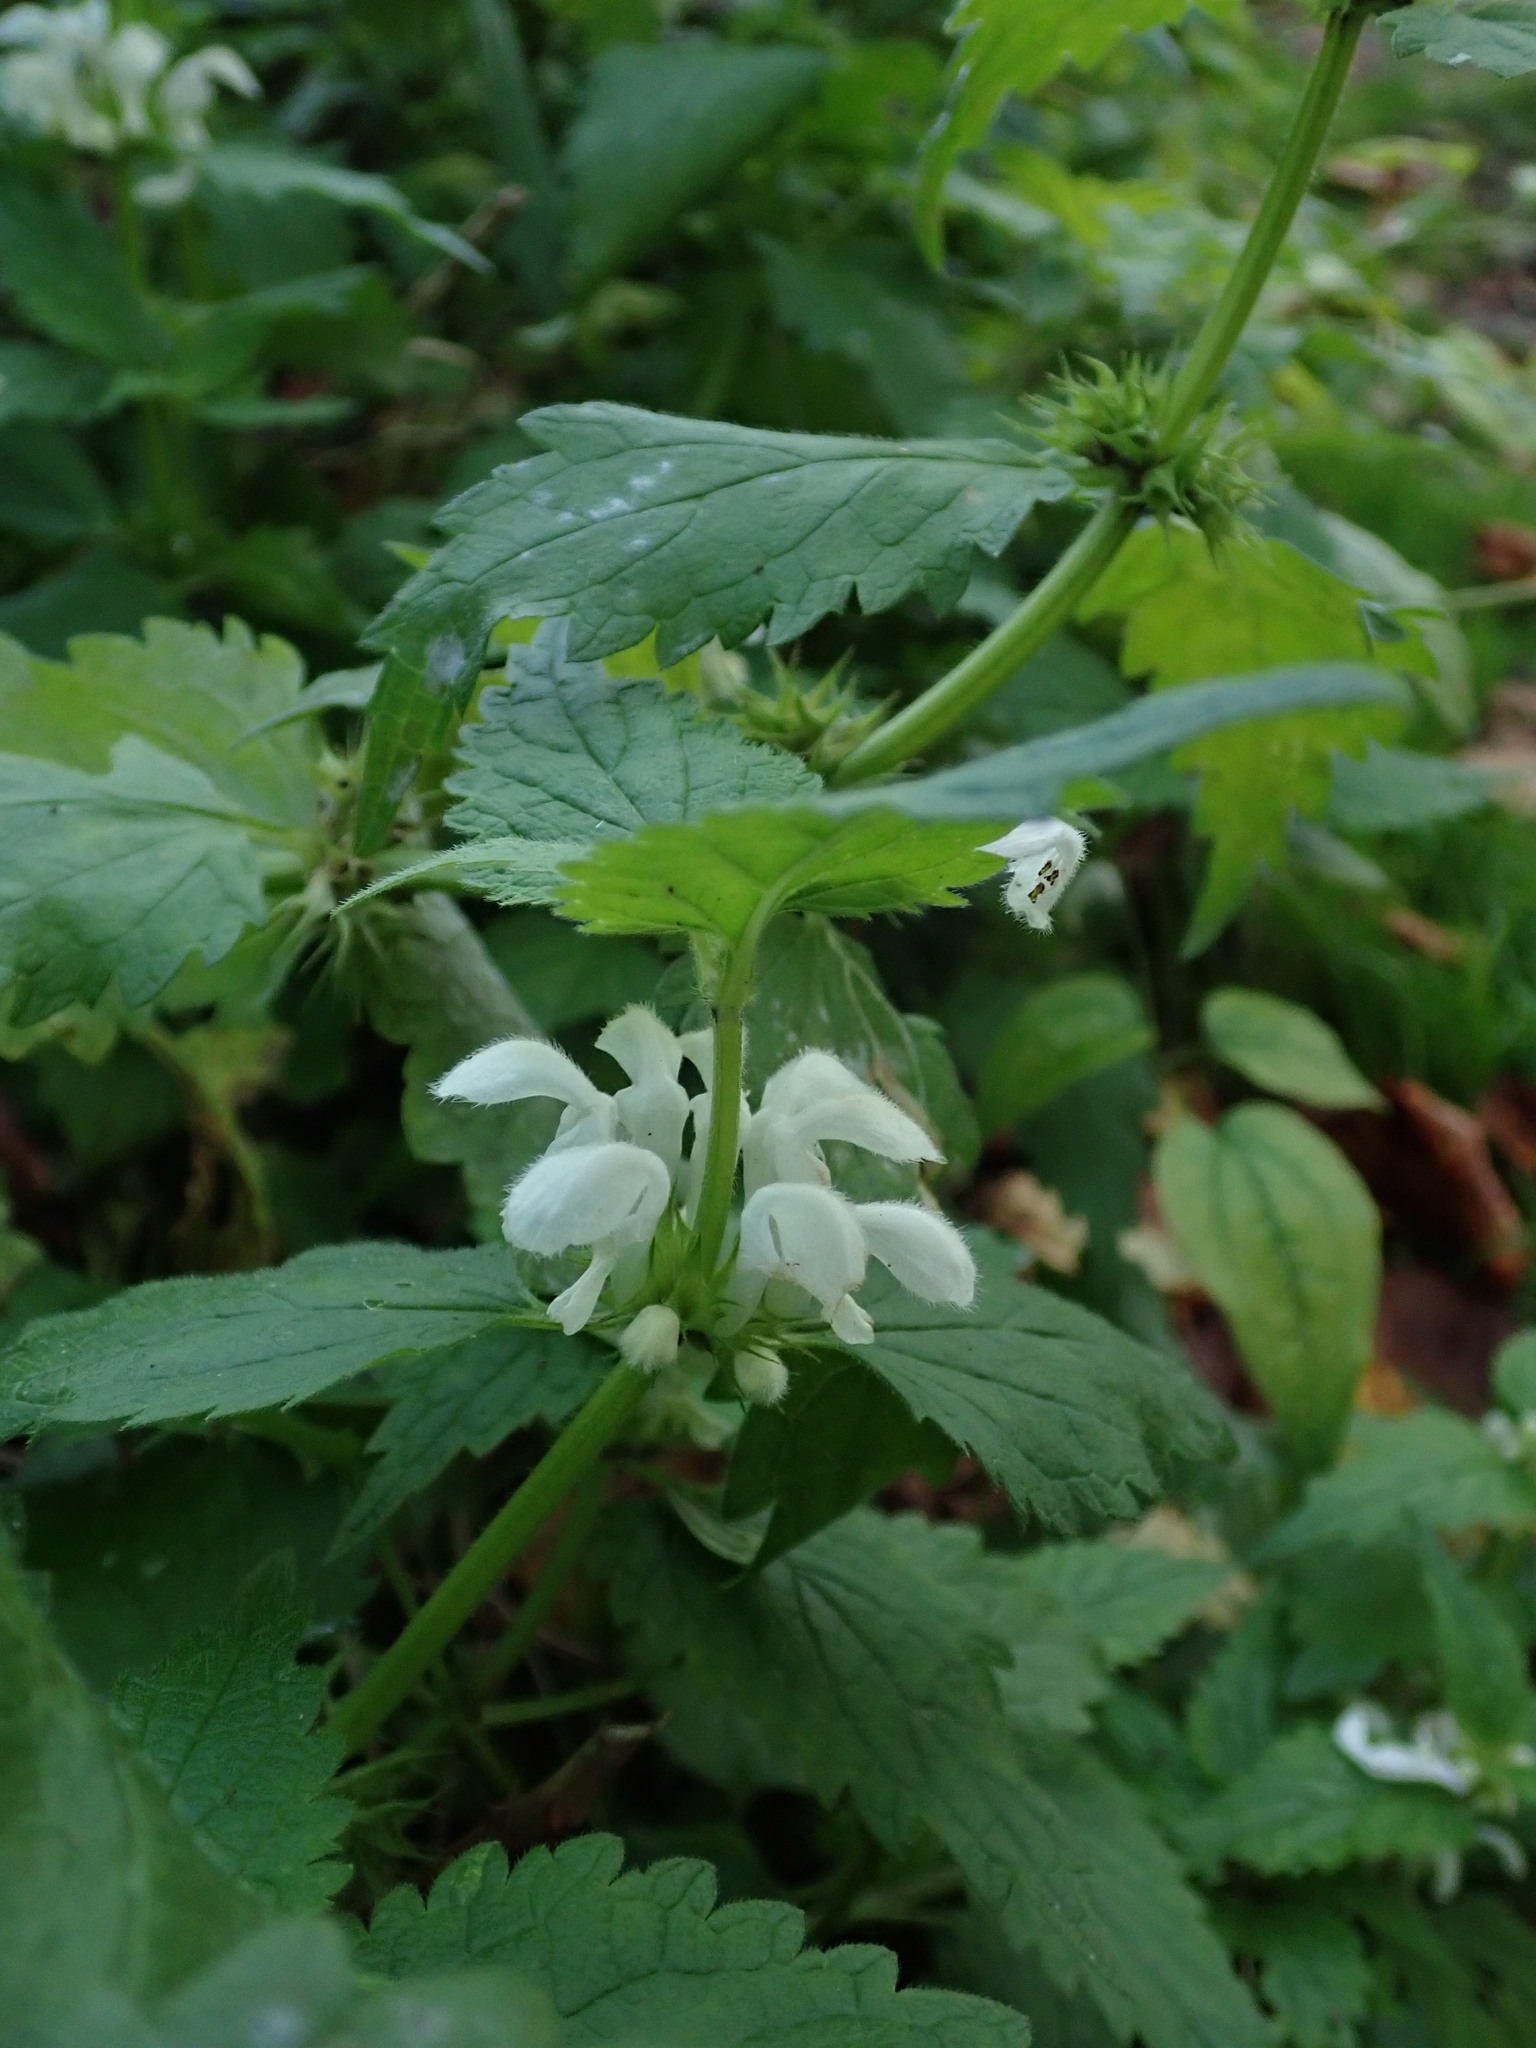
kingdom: Plantae
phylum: Tracheophyta
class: Magnoliopsida
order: Lamiales
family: Lamiaceae
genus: Lamium
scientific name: Lamium album
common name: White dead-nettle
